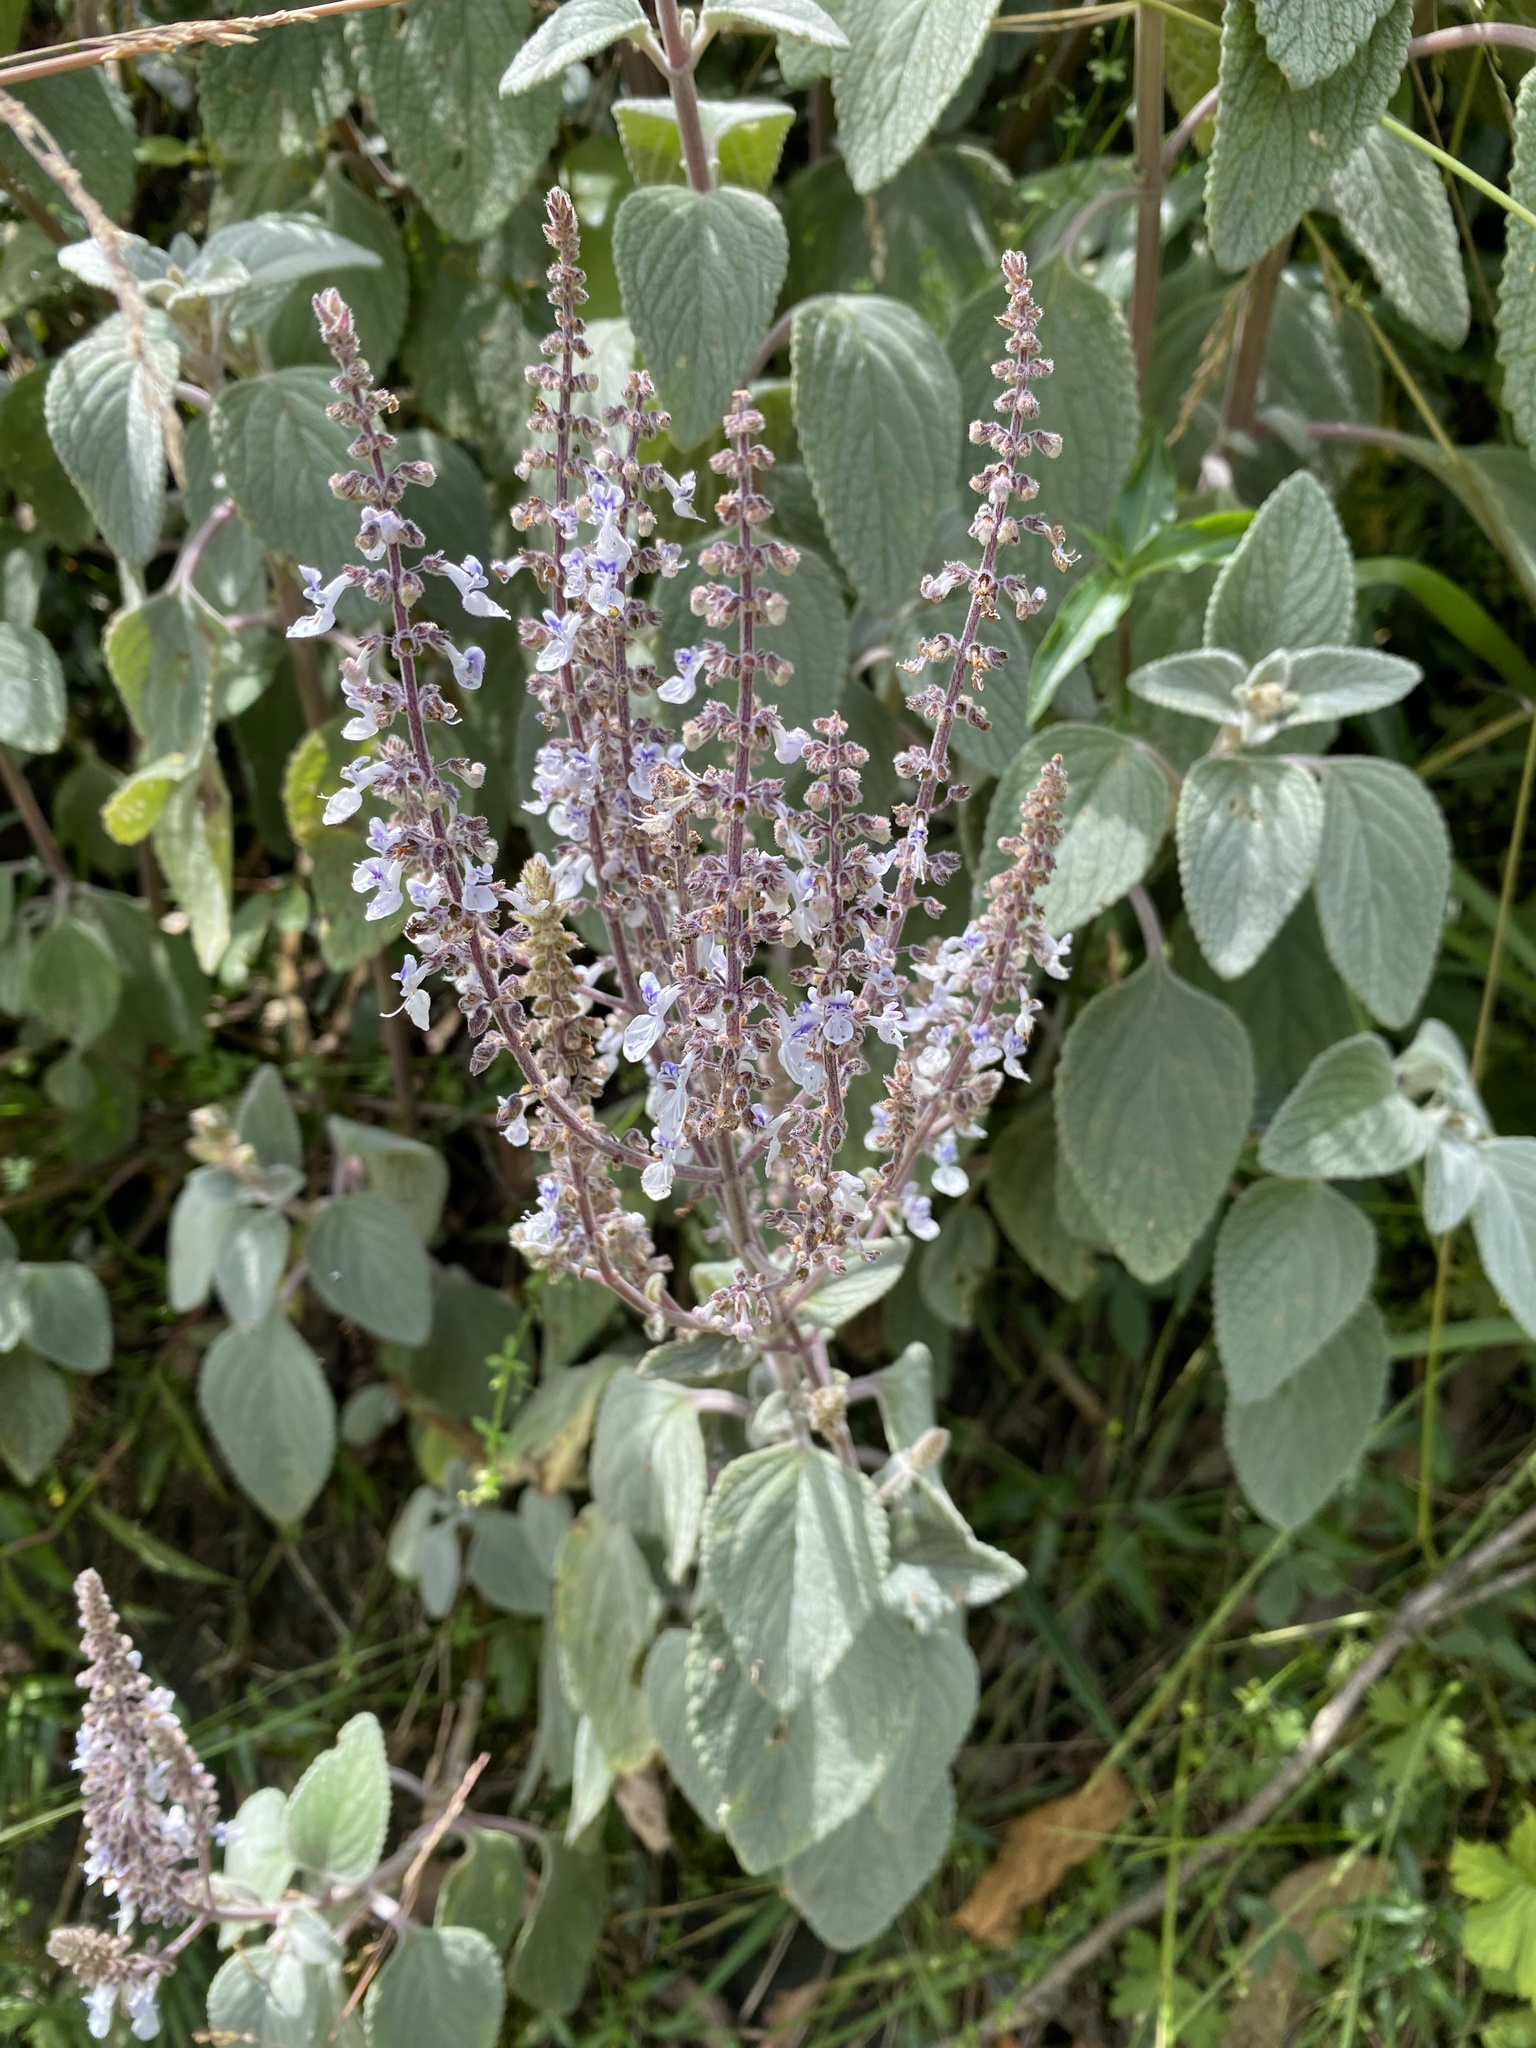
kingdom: Plantae
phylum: Tracheophyta
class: Magnoliopsida
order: Lamiales
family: Lamiaceae
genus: Coleus
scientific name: Coleus argentatus
